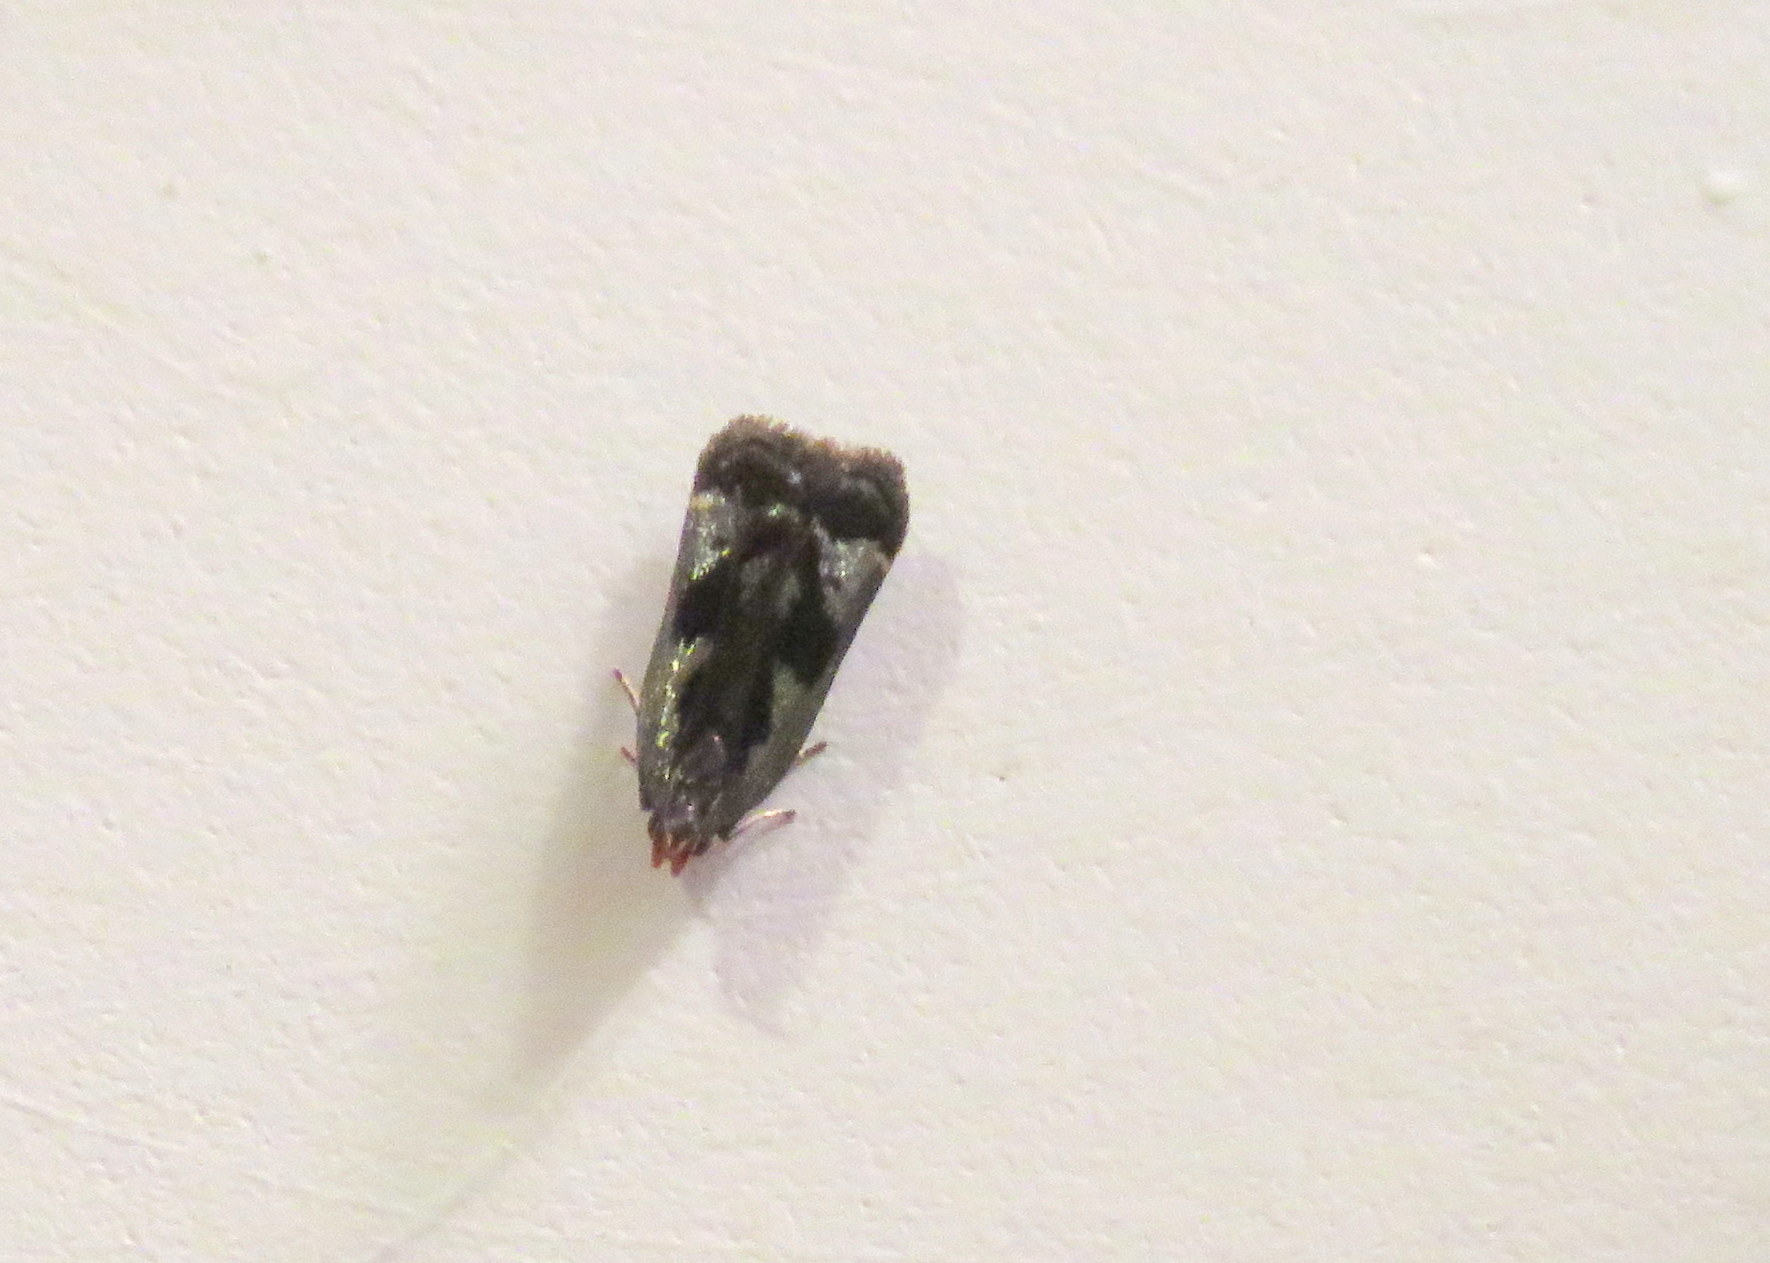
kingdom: Animalia
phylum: Arthropoda
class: Insecta
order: Lepidoptera
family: Gelechiidae
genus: Dichomeris
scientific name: Dichomeris ochripalpella
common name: Shining dichomeris moth
